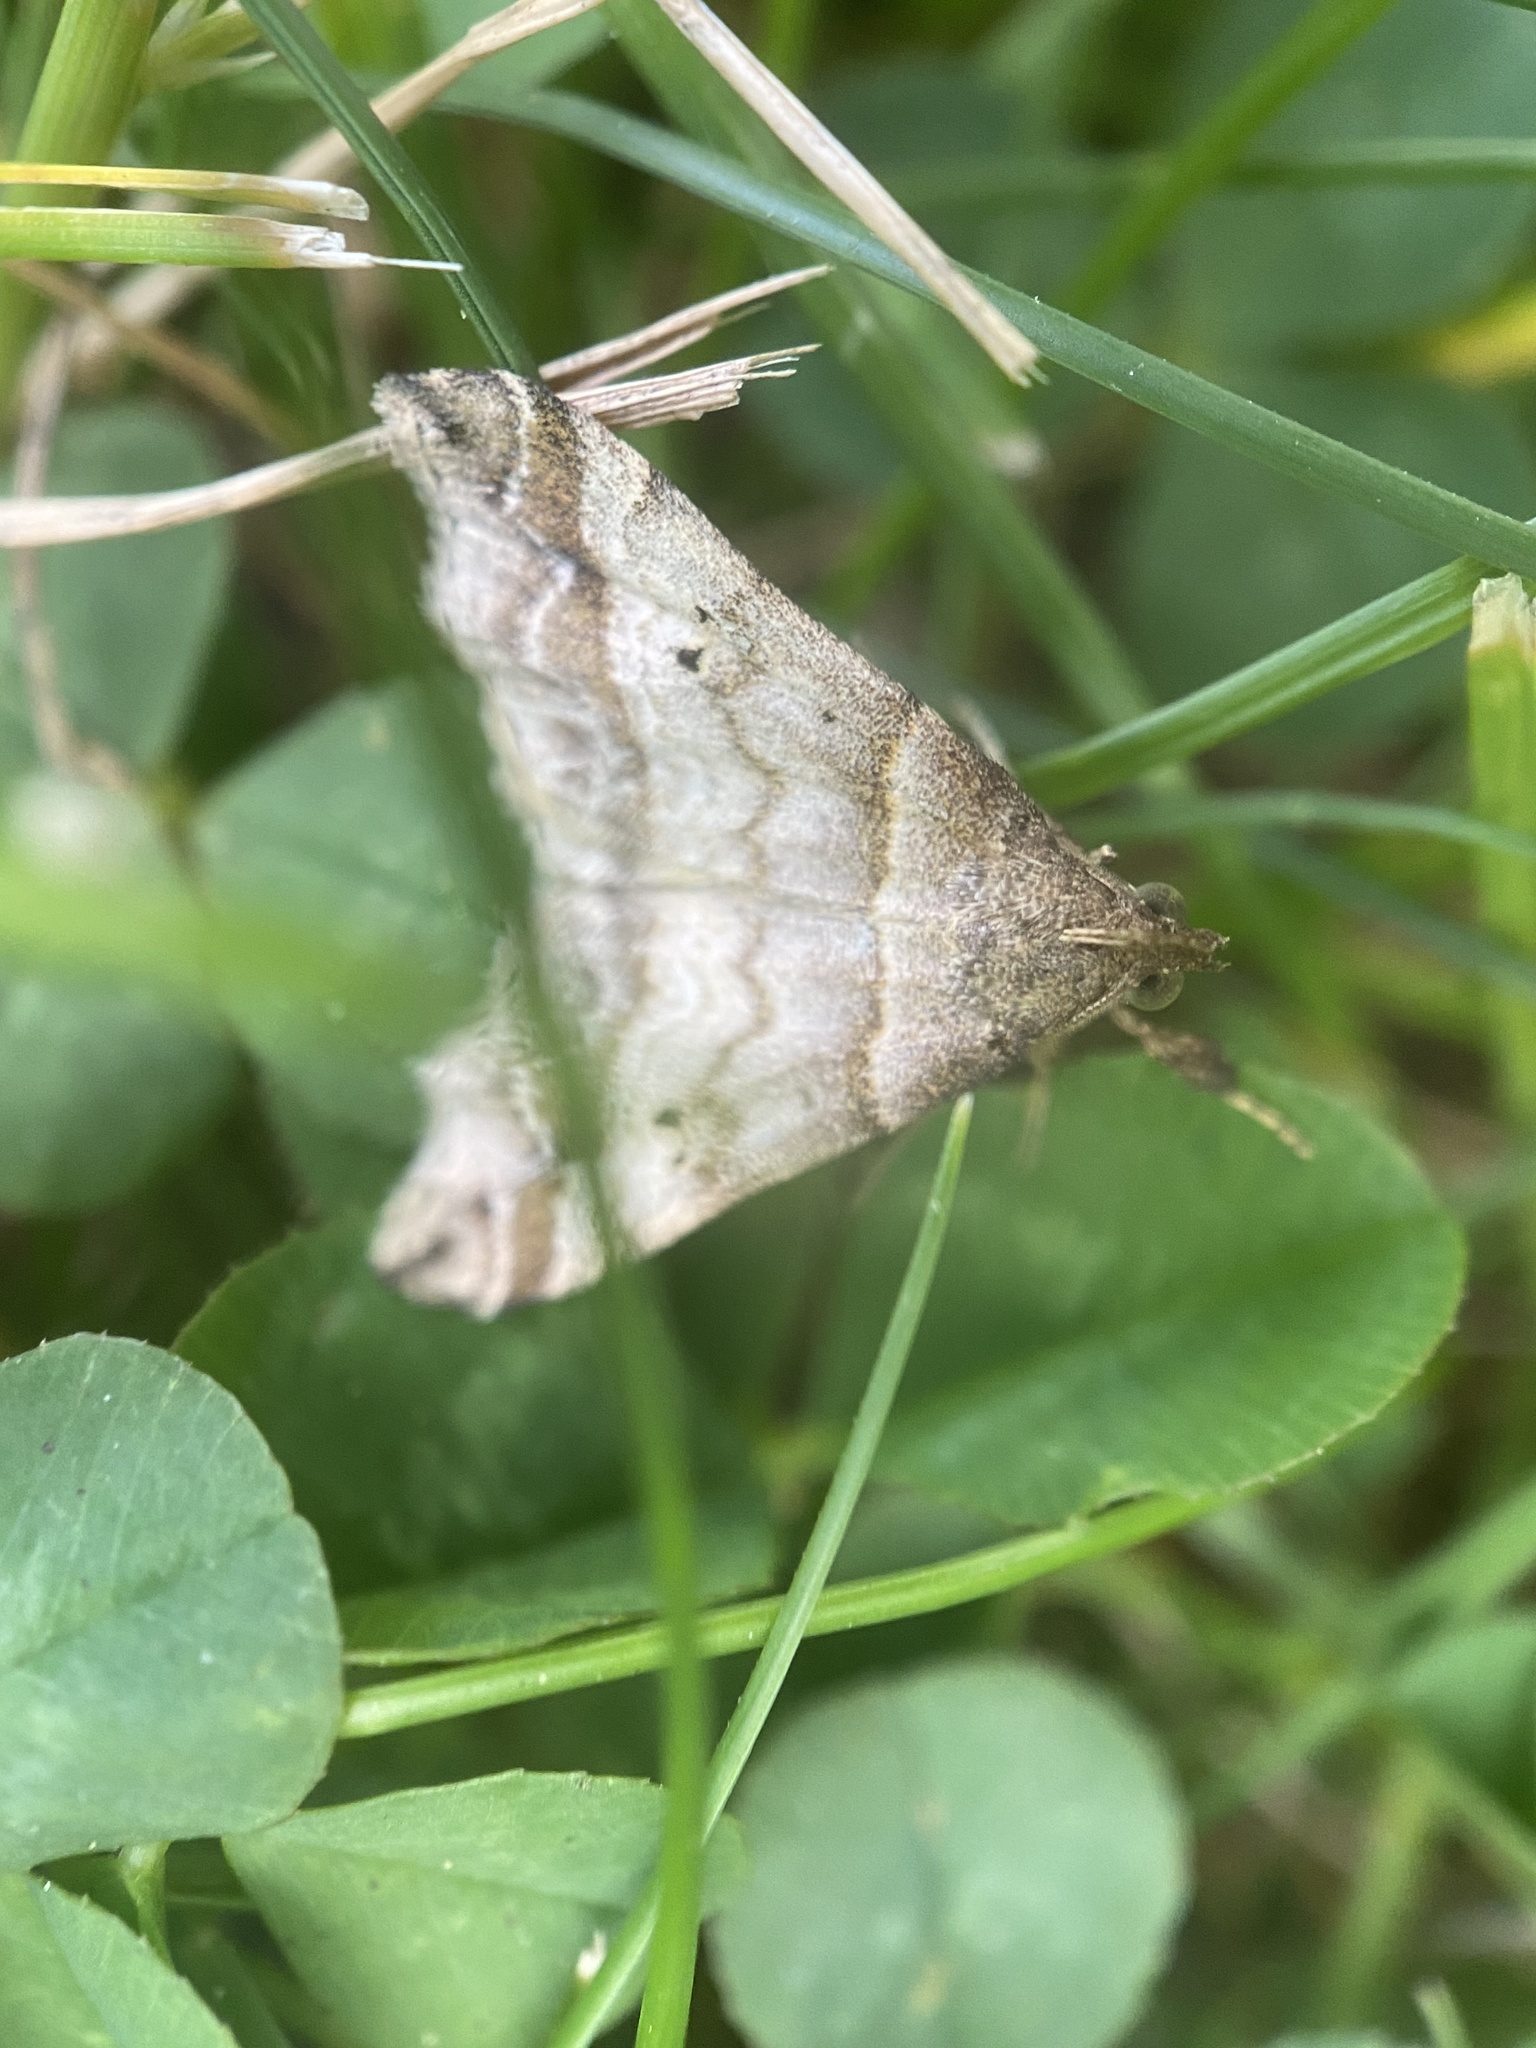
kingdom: Animalia
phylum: Arthropoda
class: Insecta
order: Lepidoptera
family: Erebidae
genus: Phaeolita
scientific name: Phaeolita pyramusalis
